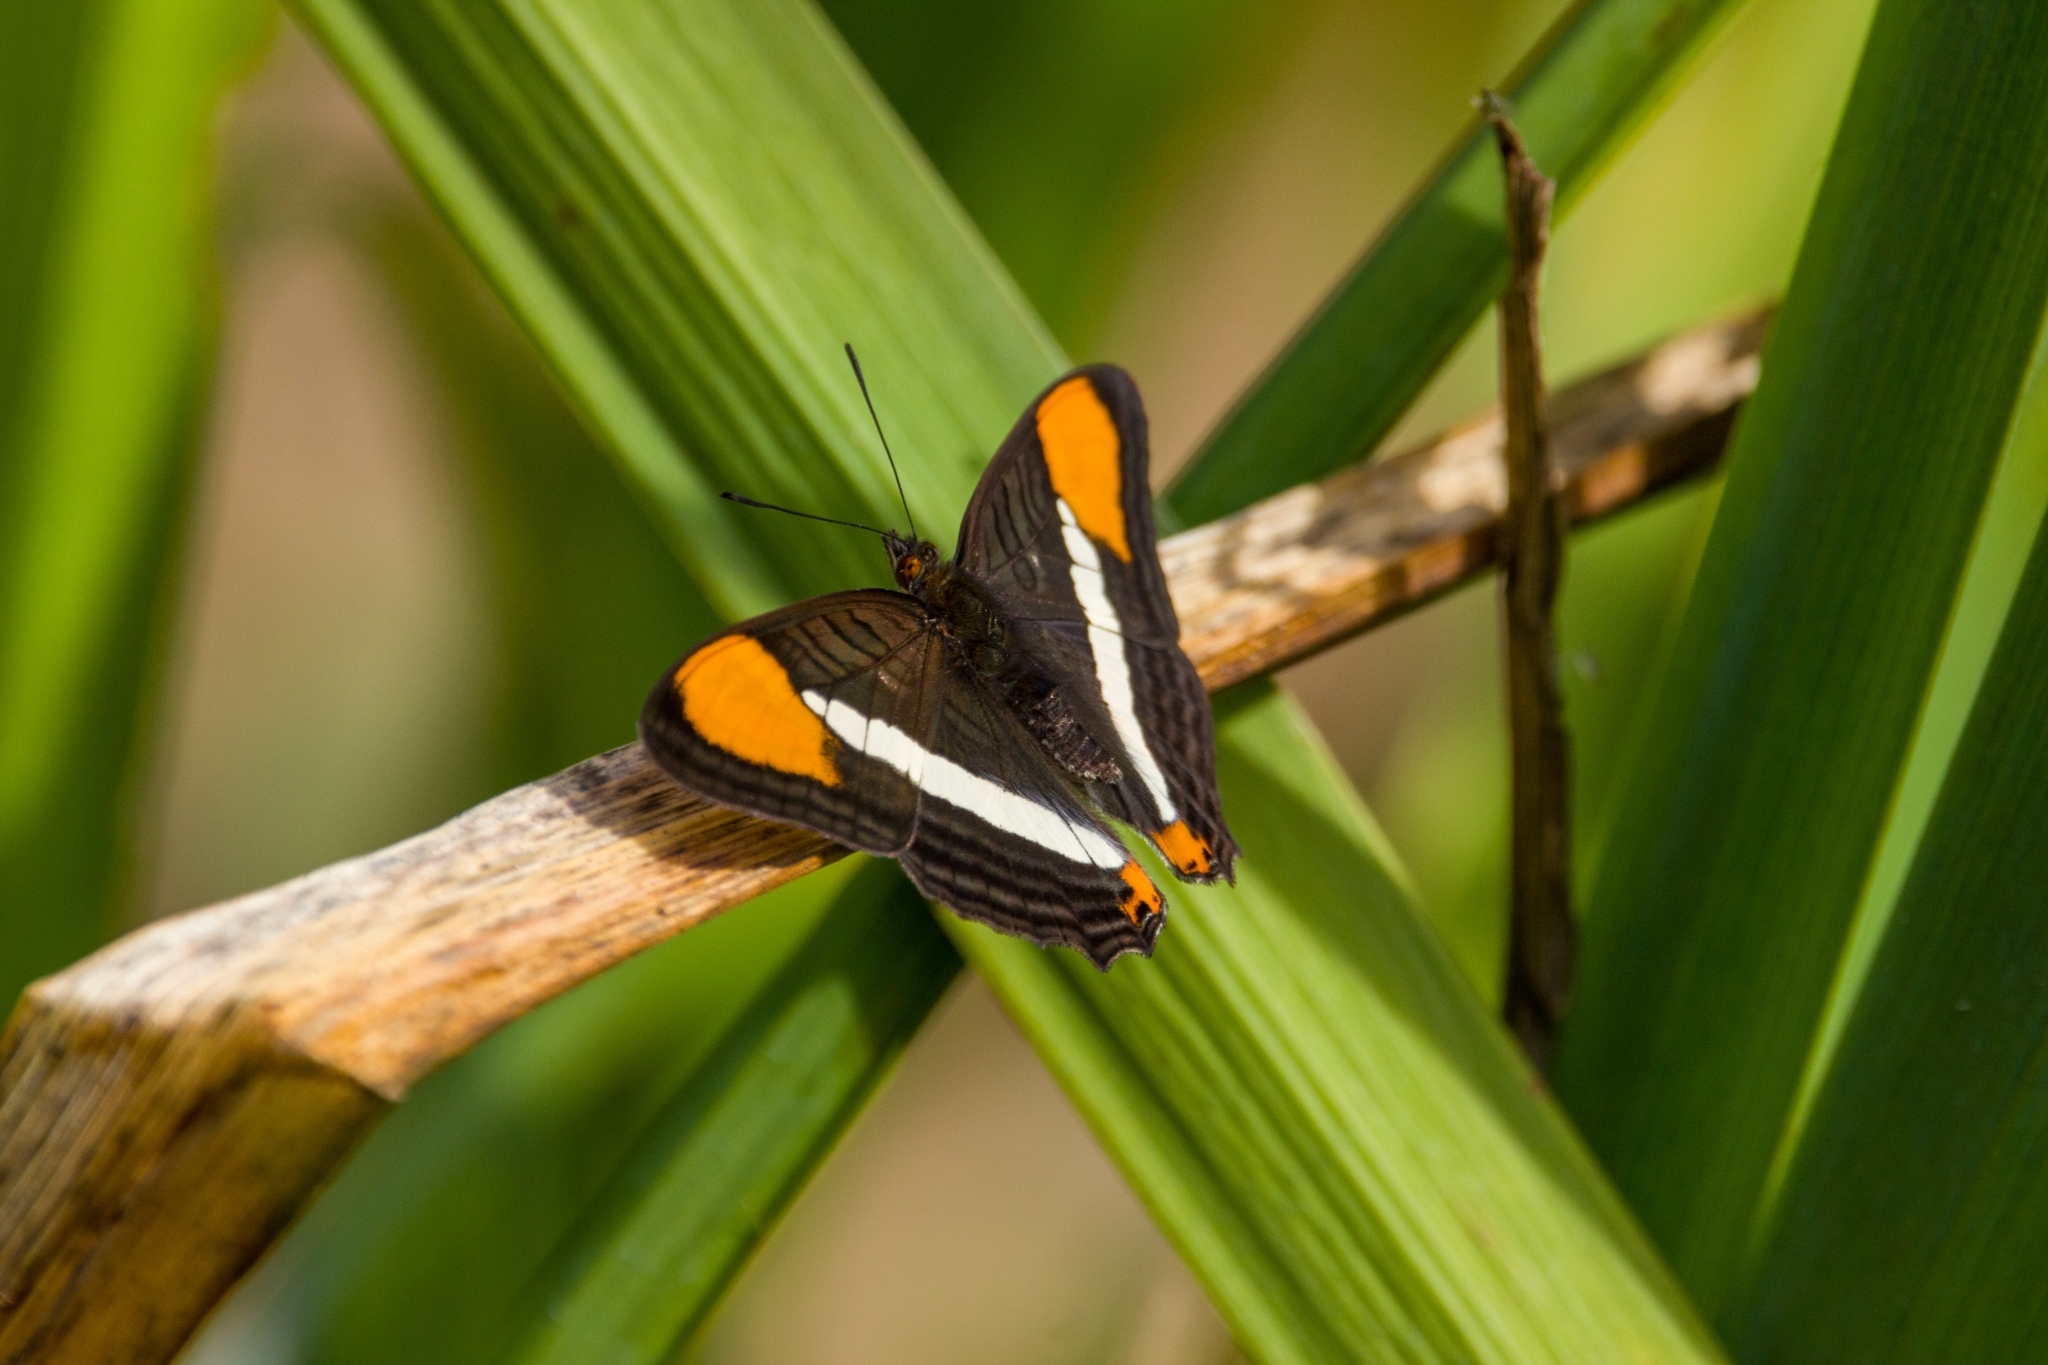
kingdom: Animalia
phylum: Arthropoda
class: Insecta
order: Lepidoptera
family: Nymphalidae
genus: Limenitis
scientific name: Limenitis syma
